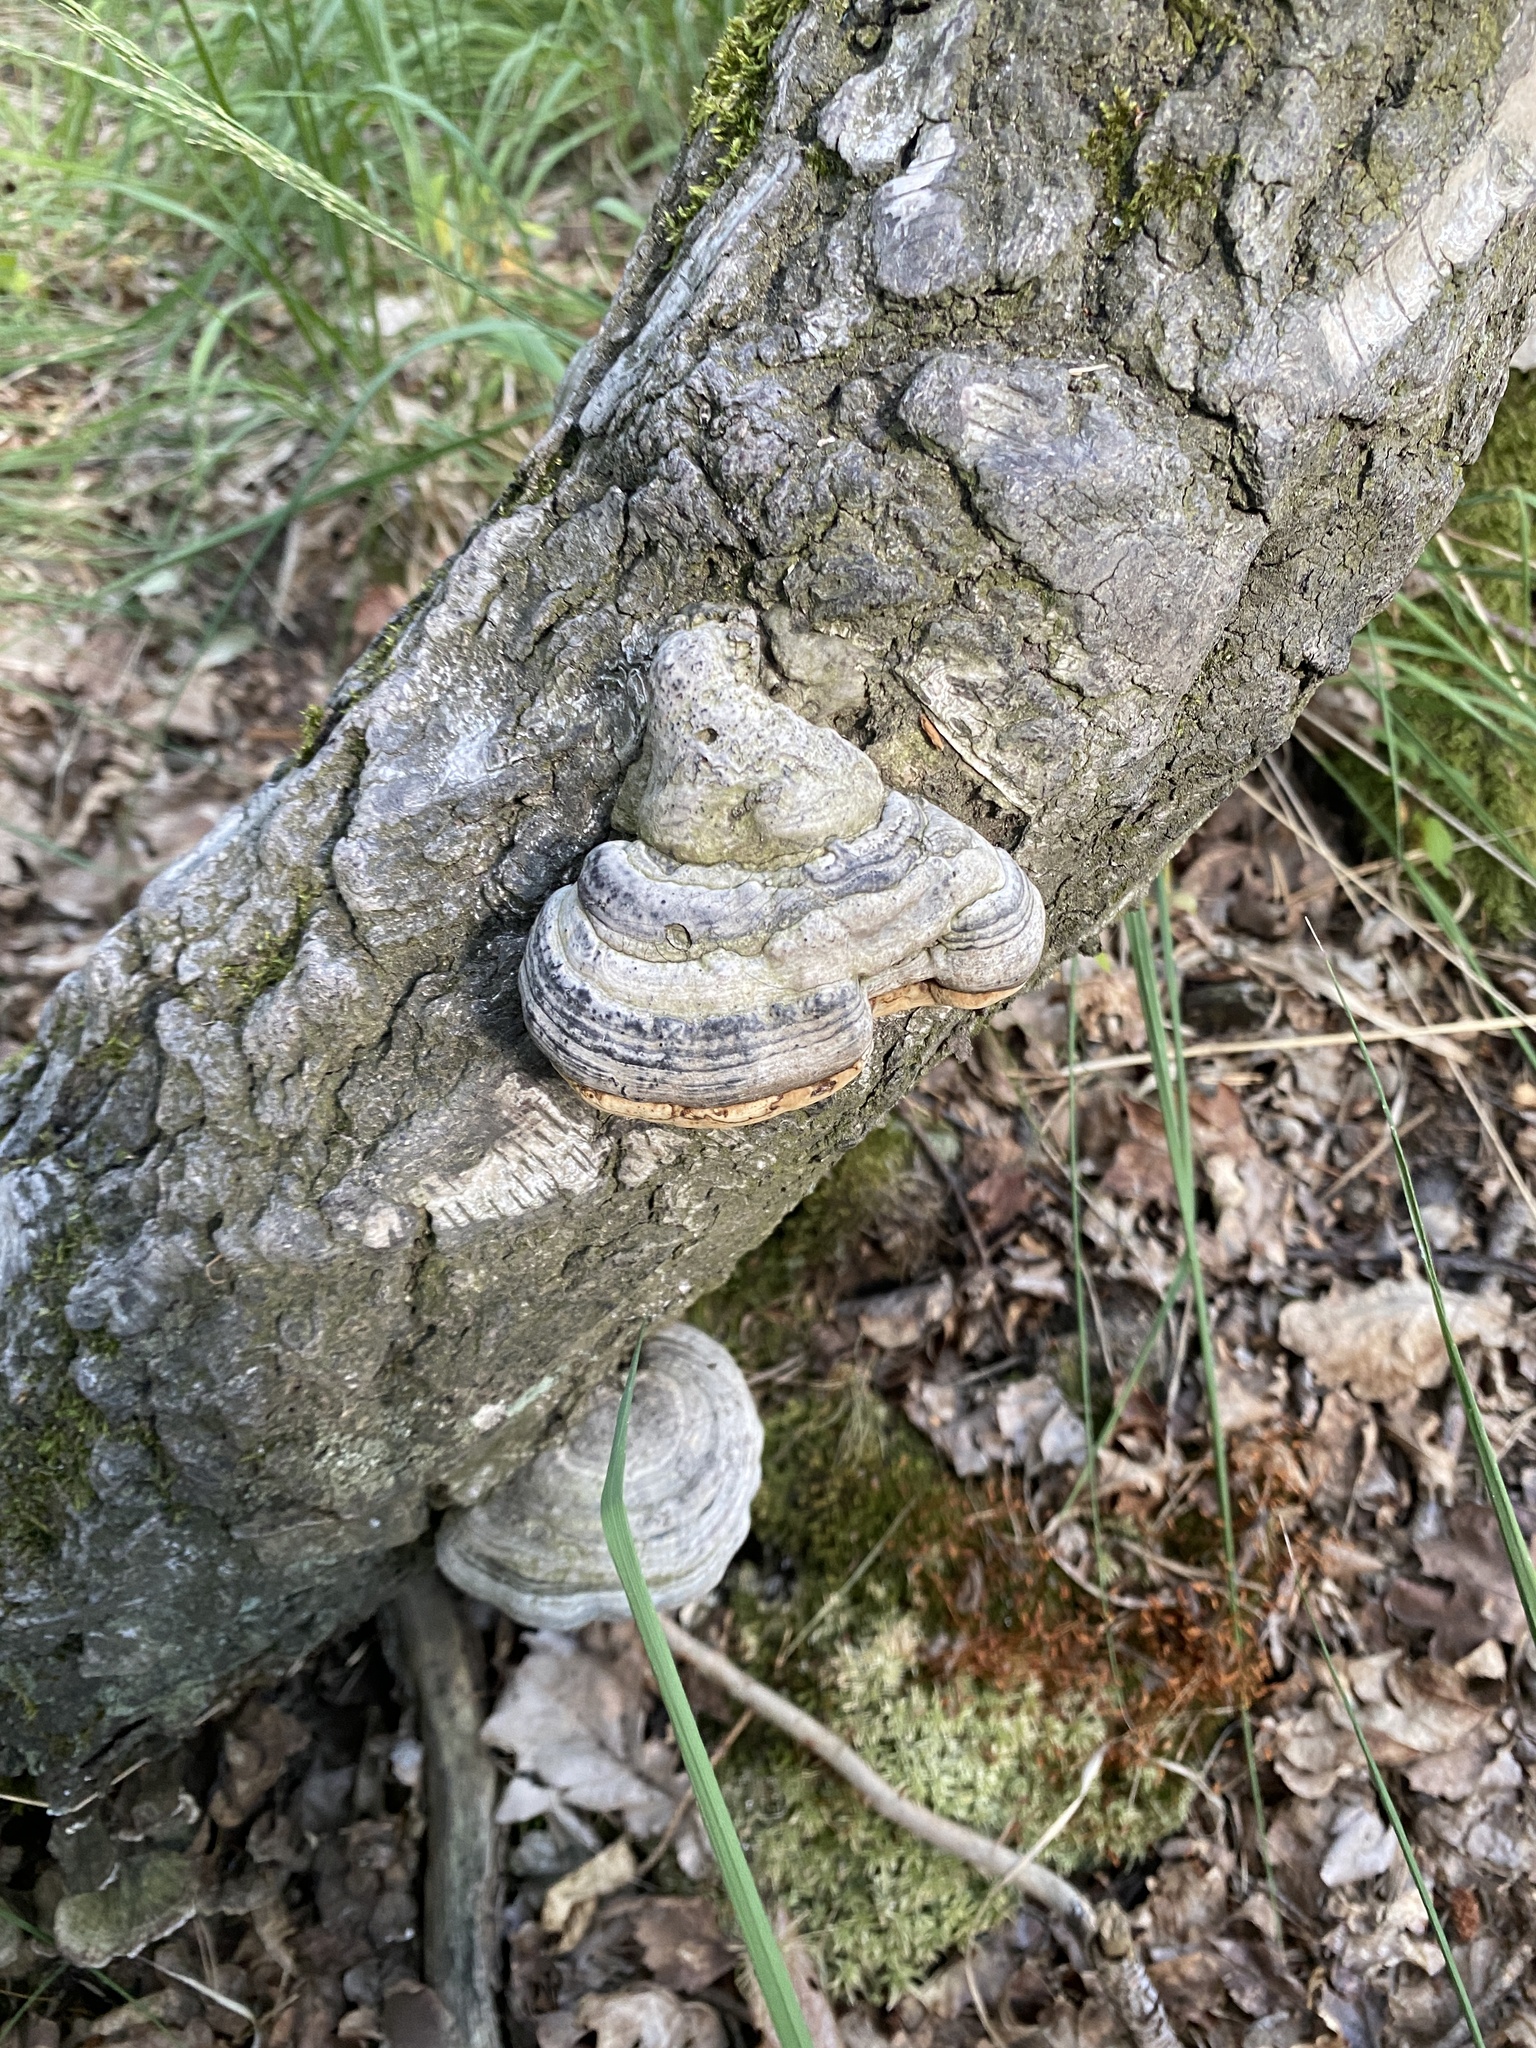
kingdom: Fungi
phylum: Basidiomycota
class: Agaricomycetes
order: Polyporales
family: Polyporaceae
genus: Fomes
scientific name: Fomes fomentarius
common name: Hoof fungus
